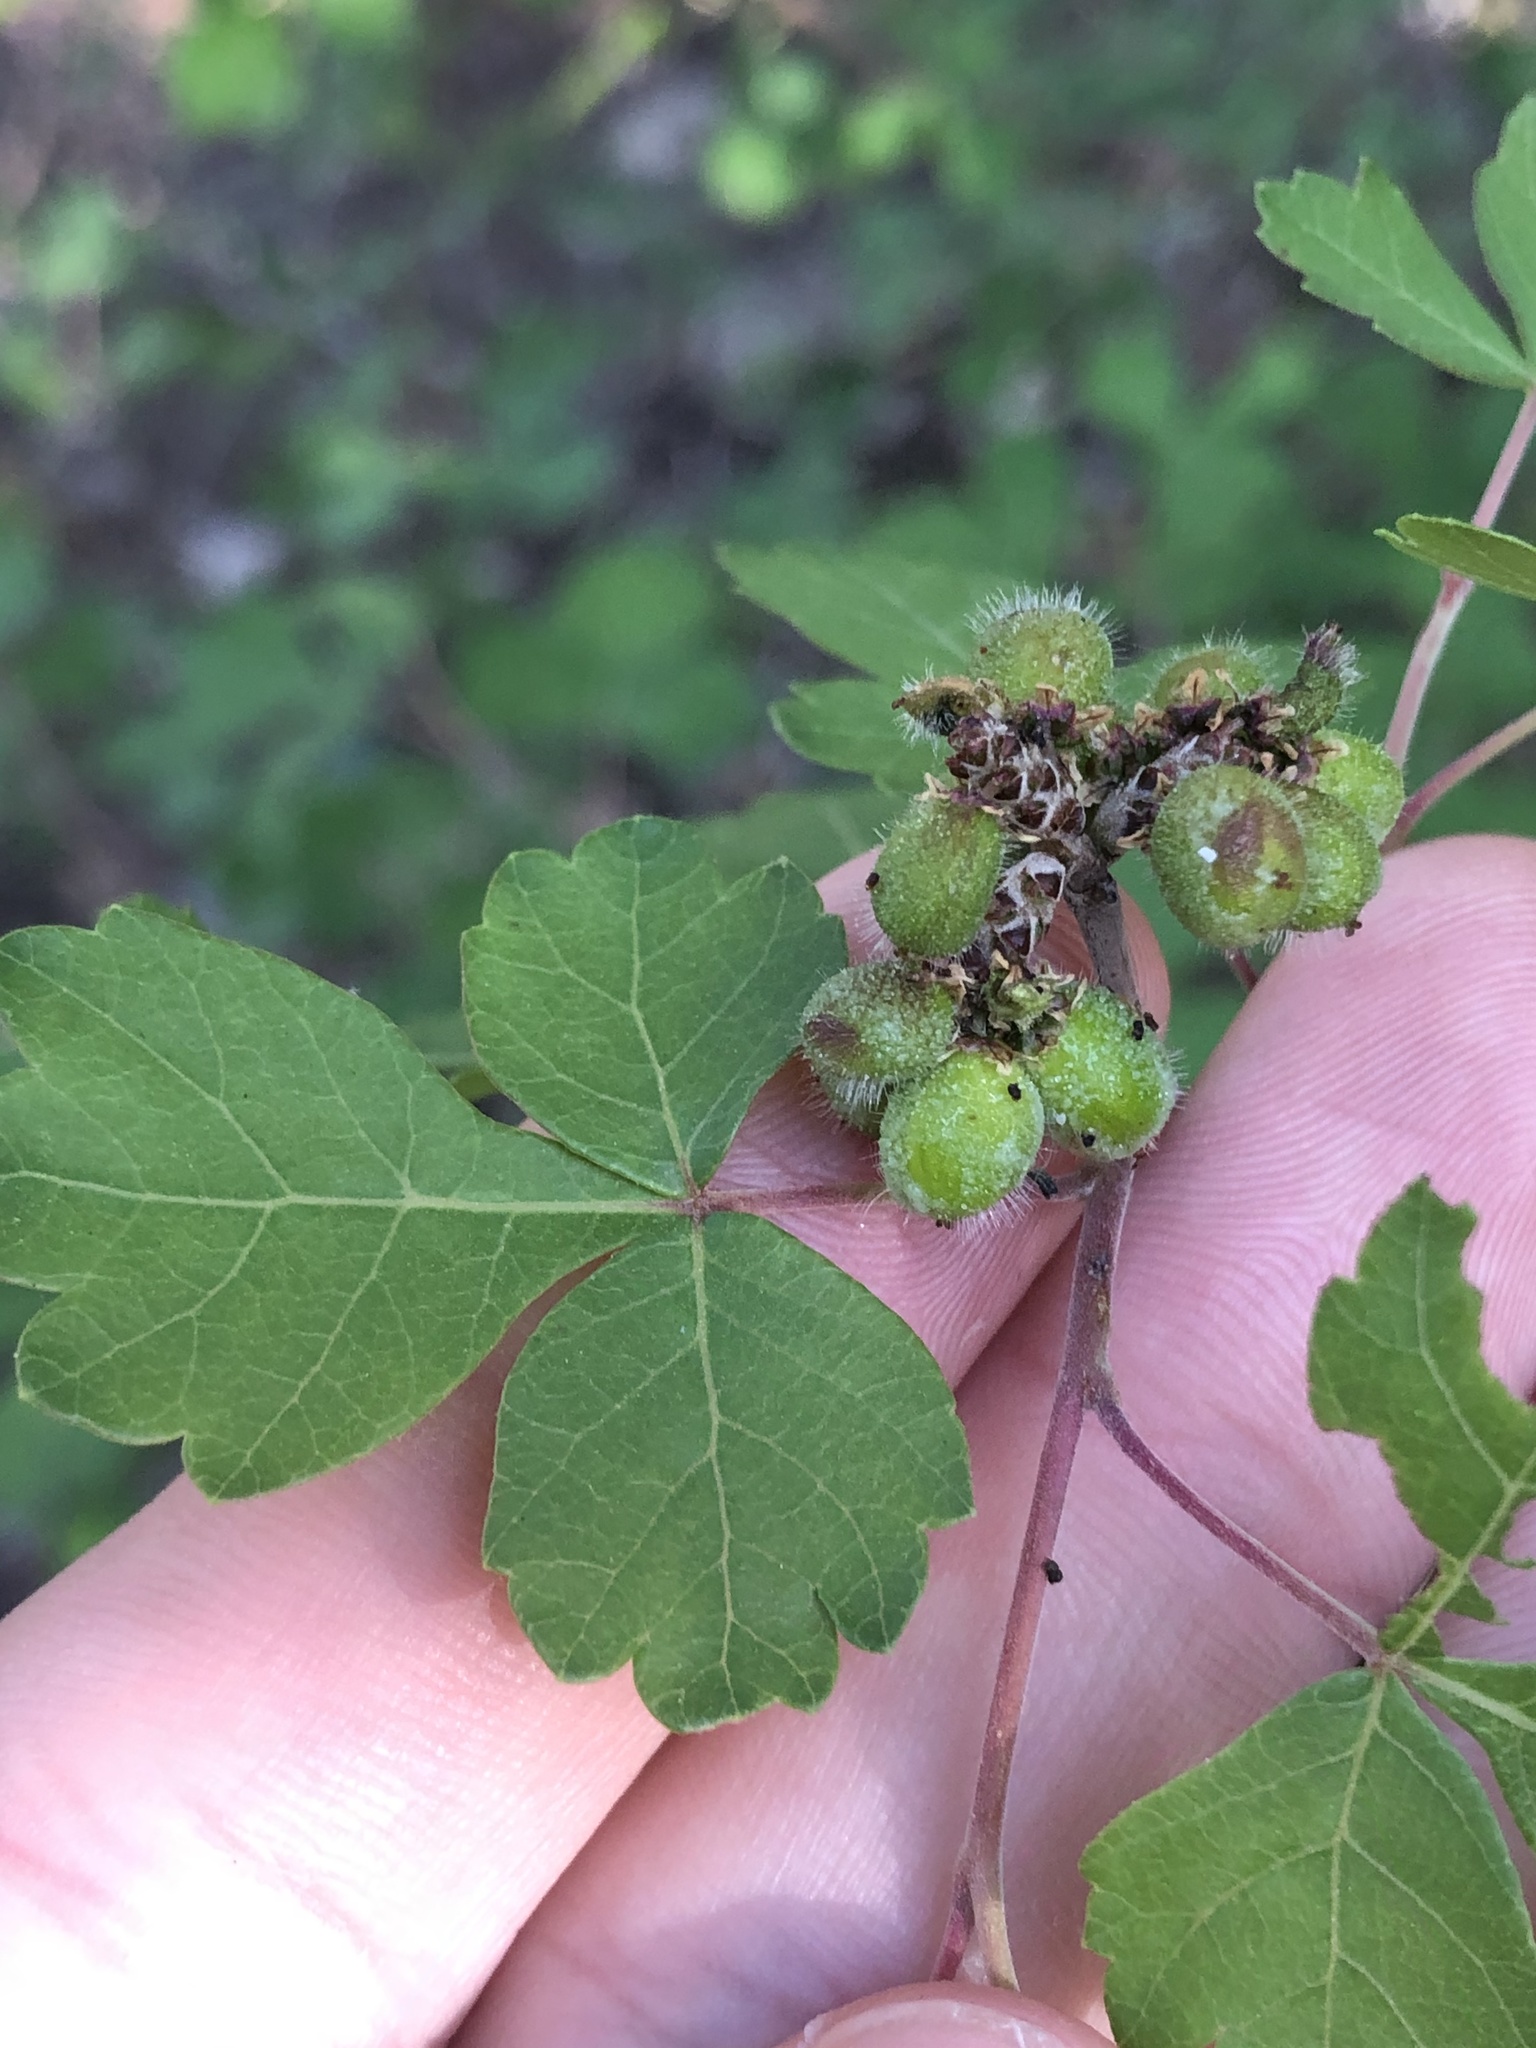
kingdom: Plantae
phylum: Tracheophyta
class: Magnoliopsida
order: Sapindales
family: Anacardiaceae
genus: Rhus
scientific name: Rhus aromatica
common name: Aromatic sumac
